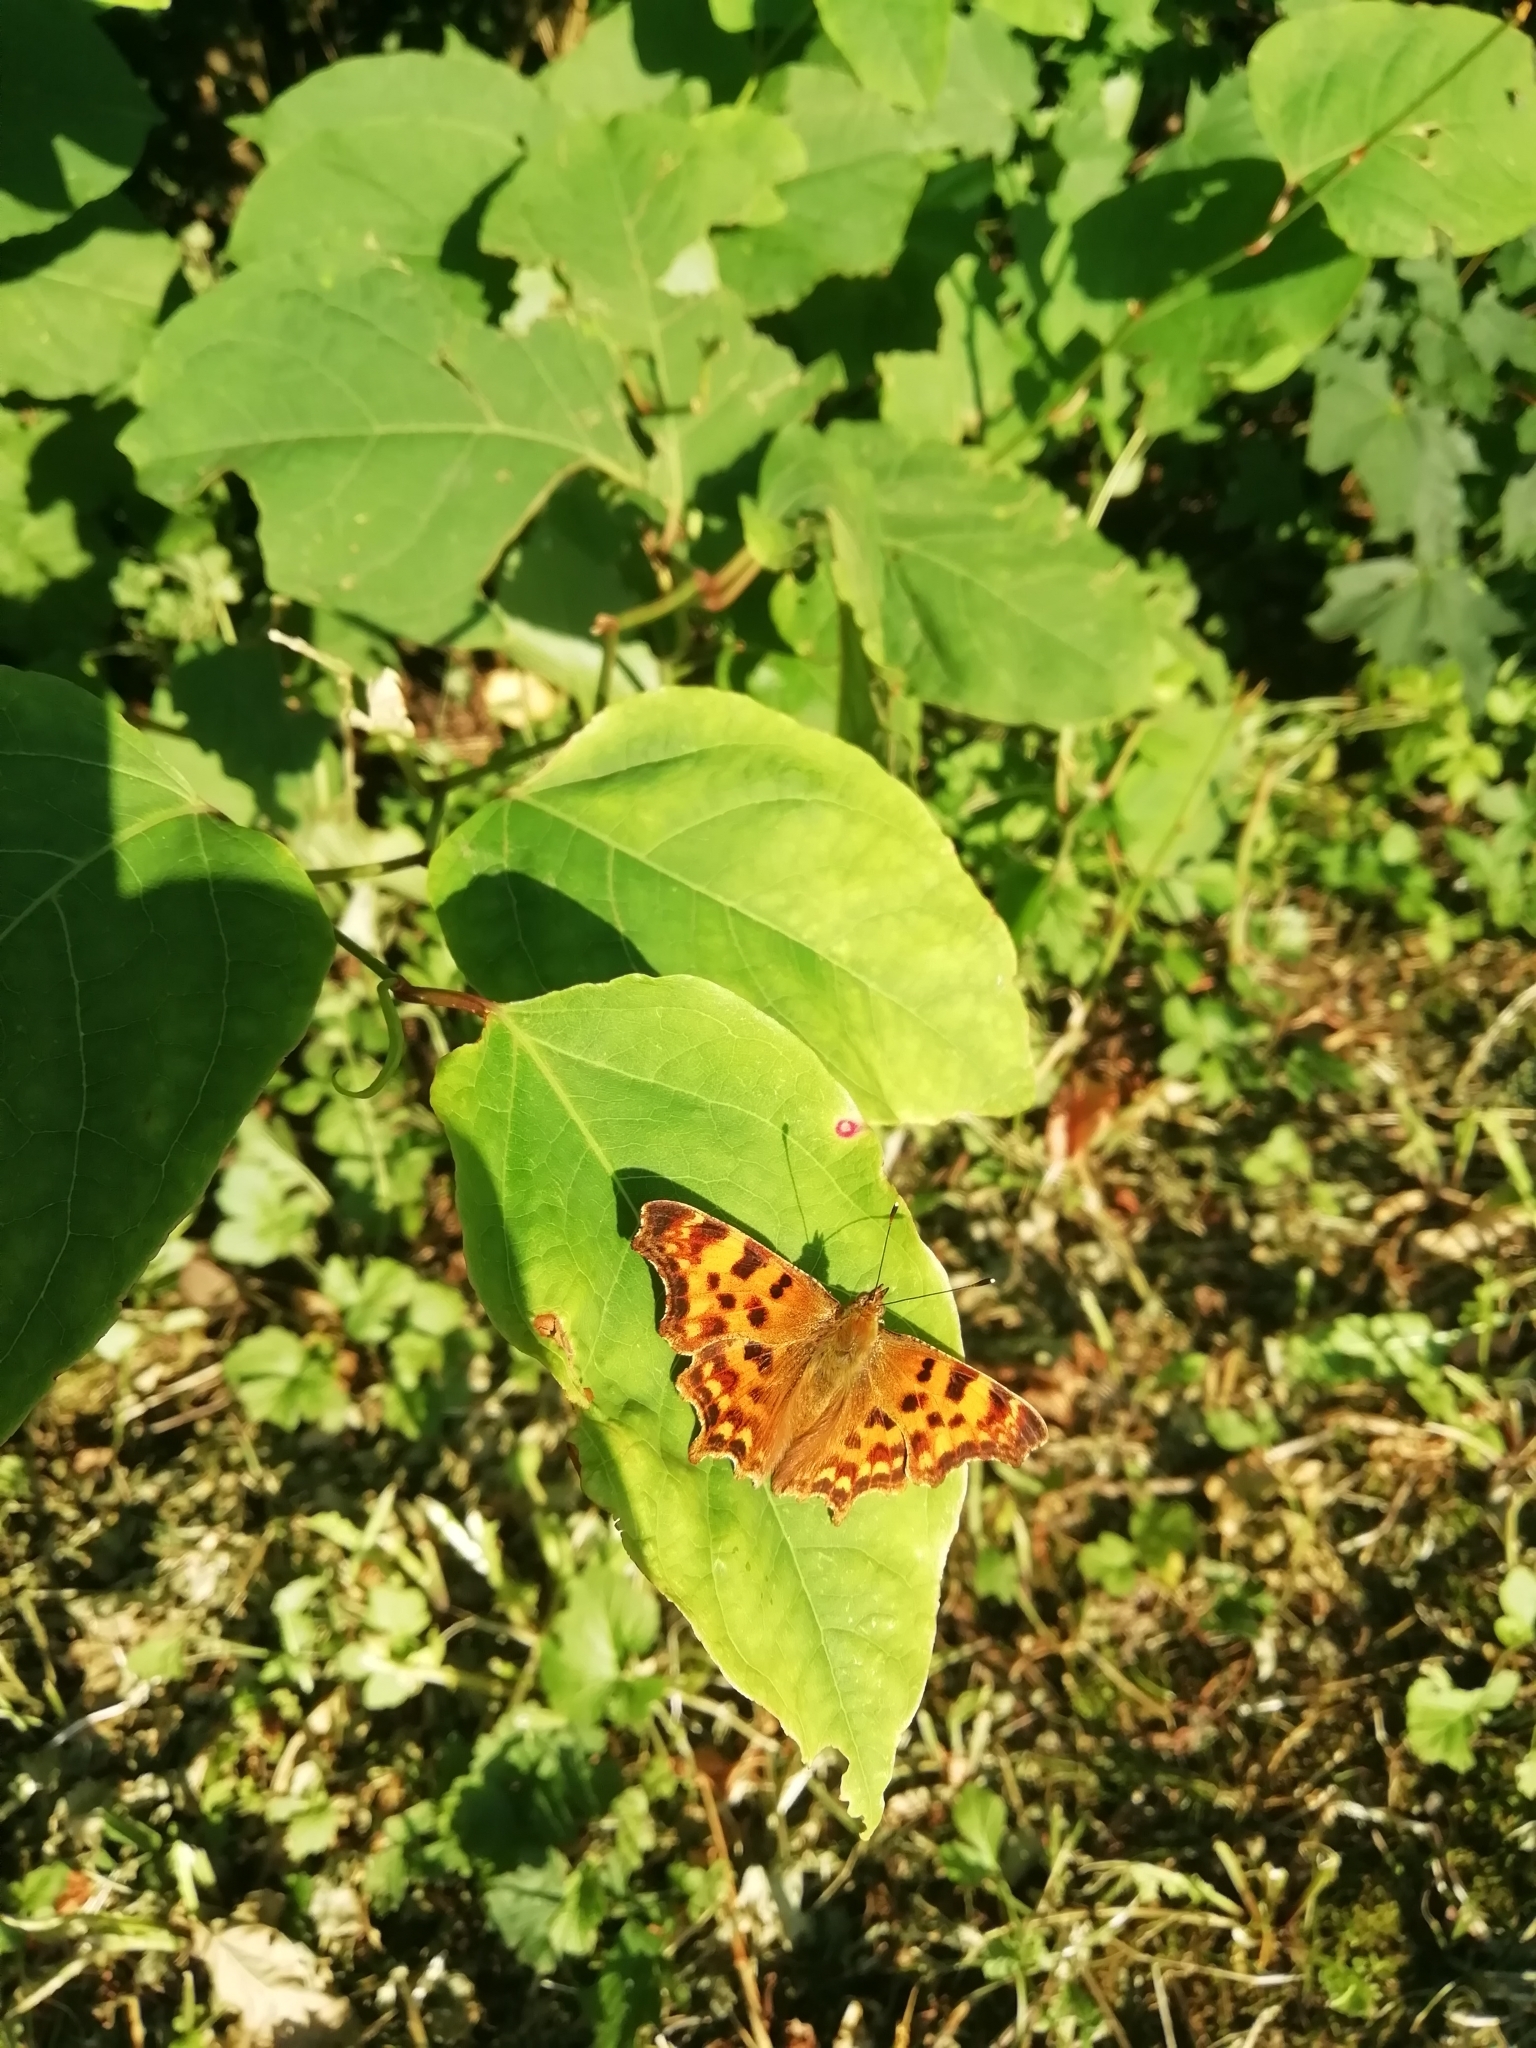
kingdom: Animalia
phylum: Arthropoda
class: Insecta
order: Lepidoptera
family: Nymphalidae
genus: Polygonia
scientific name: Polygonia c-album
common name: Comma
